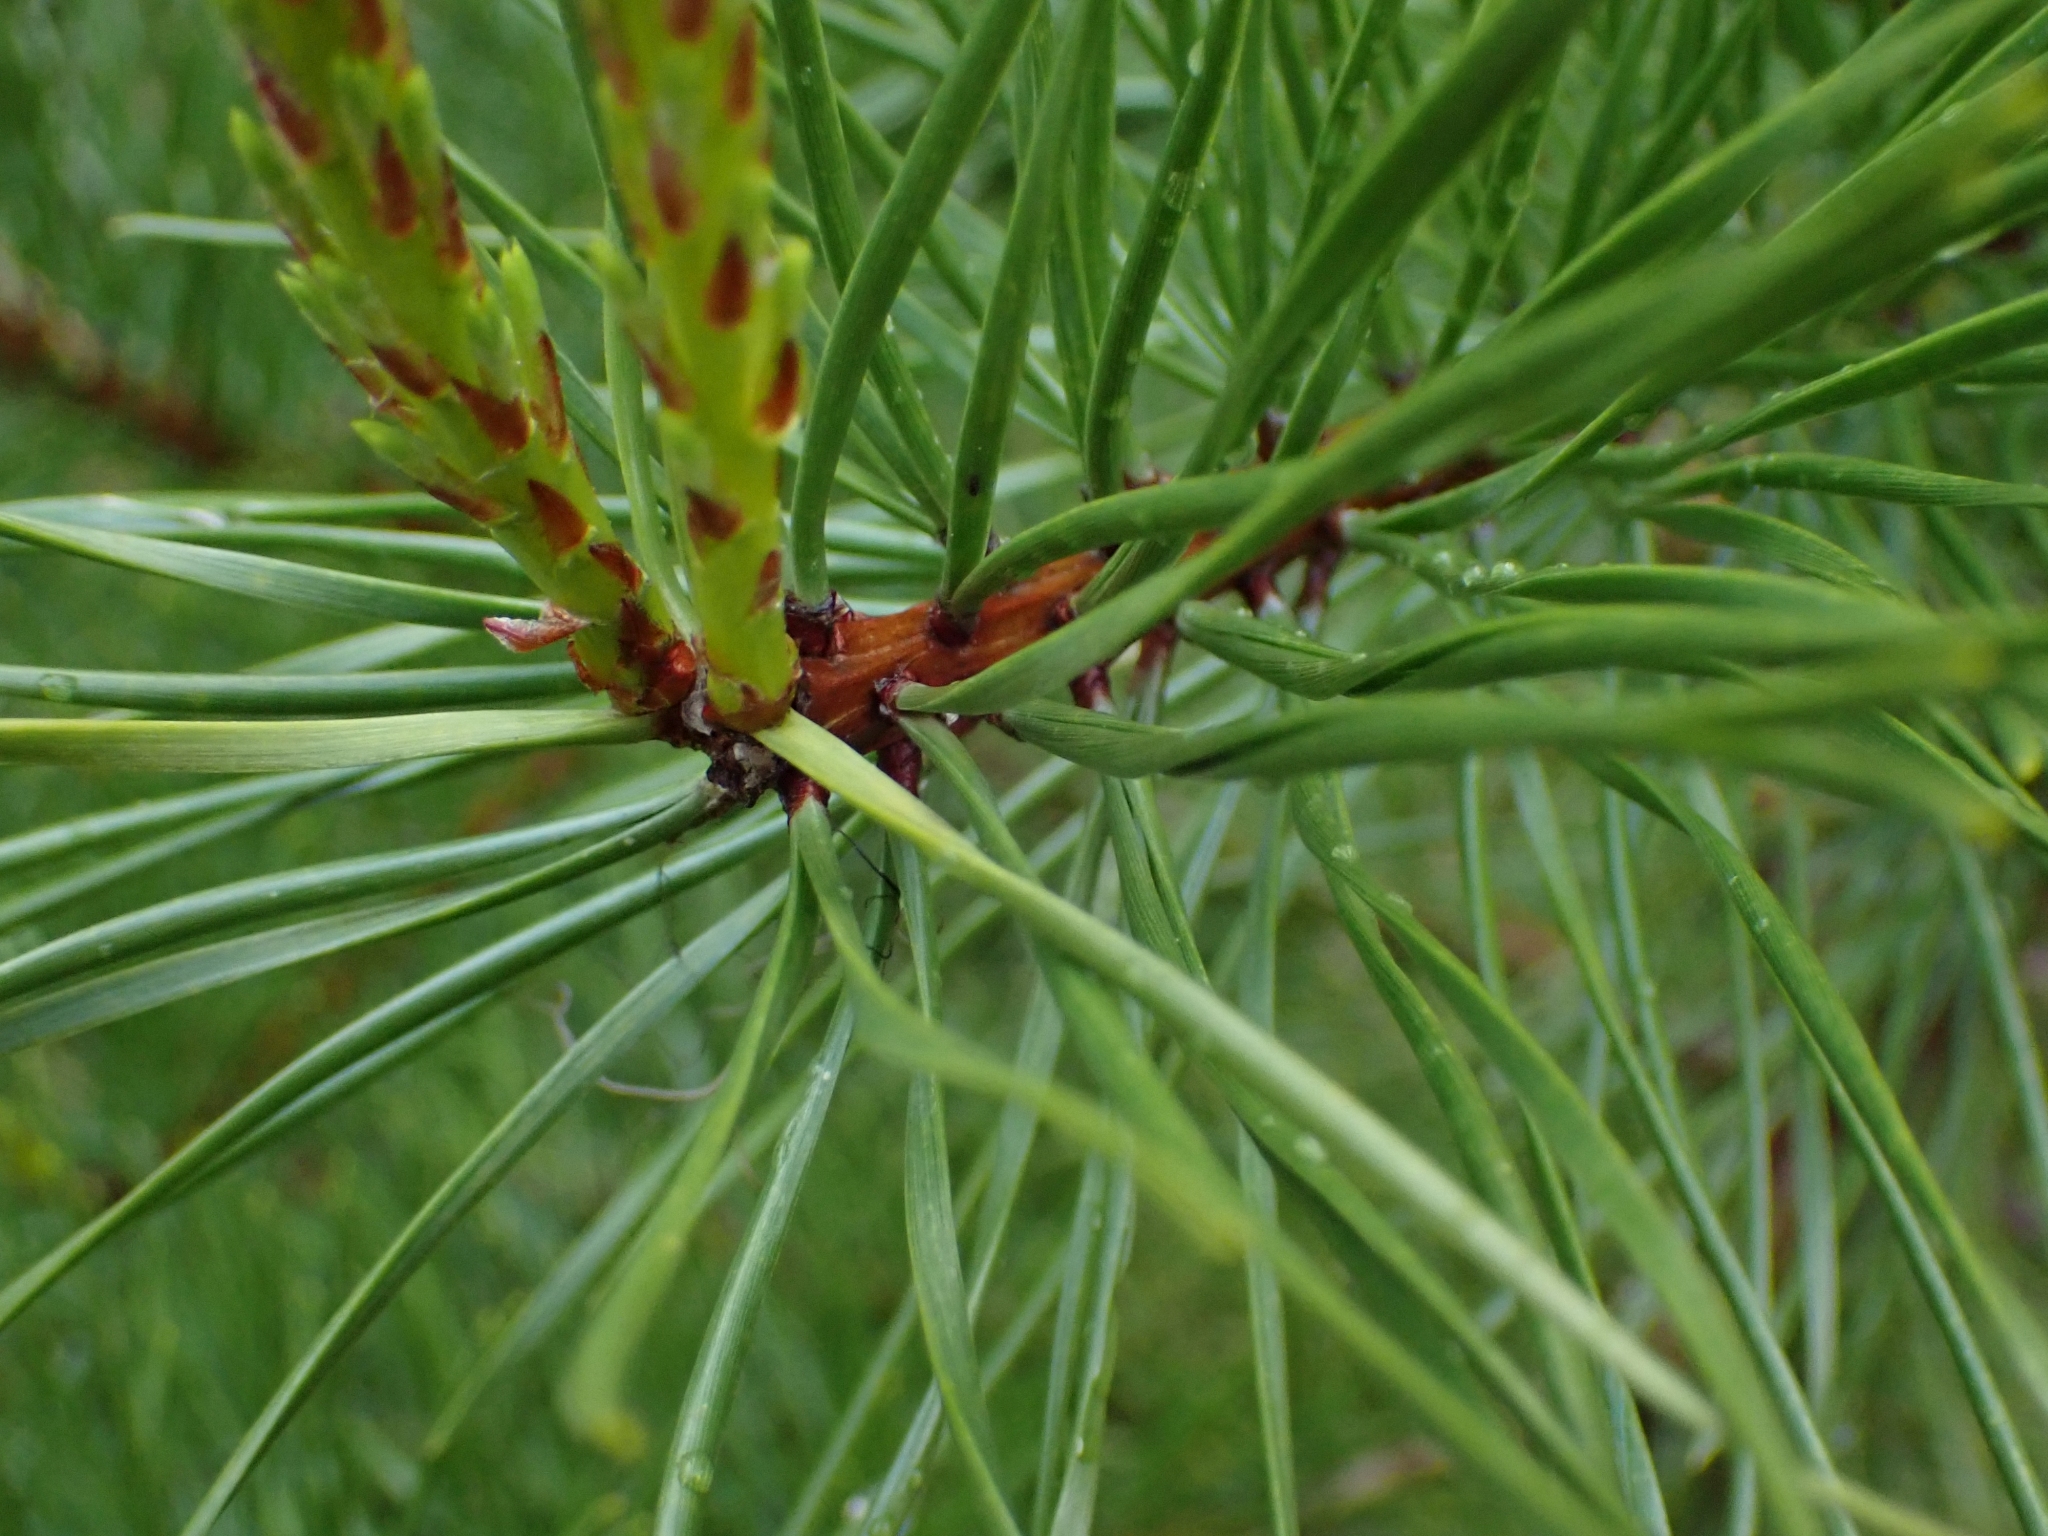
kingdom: Plantae
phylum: Tracheophyta
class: Pinopsida
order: Pinales
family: Pinaceae
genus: Pinus
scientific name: Pinus contorta
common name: Lodgepole pine
